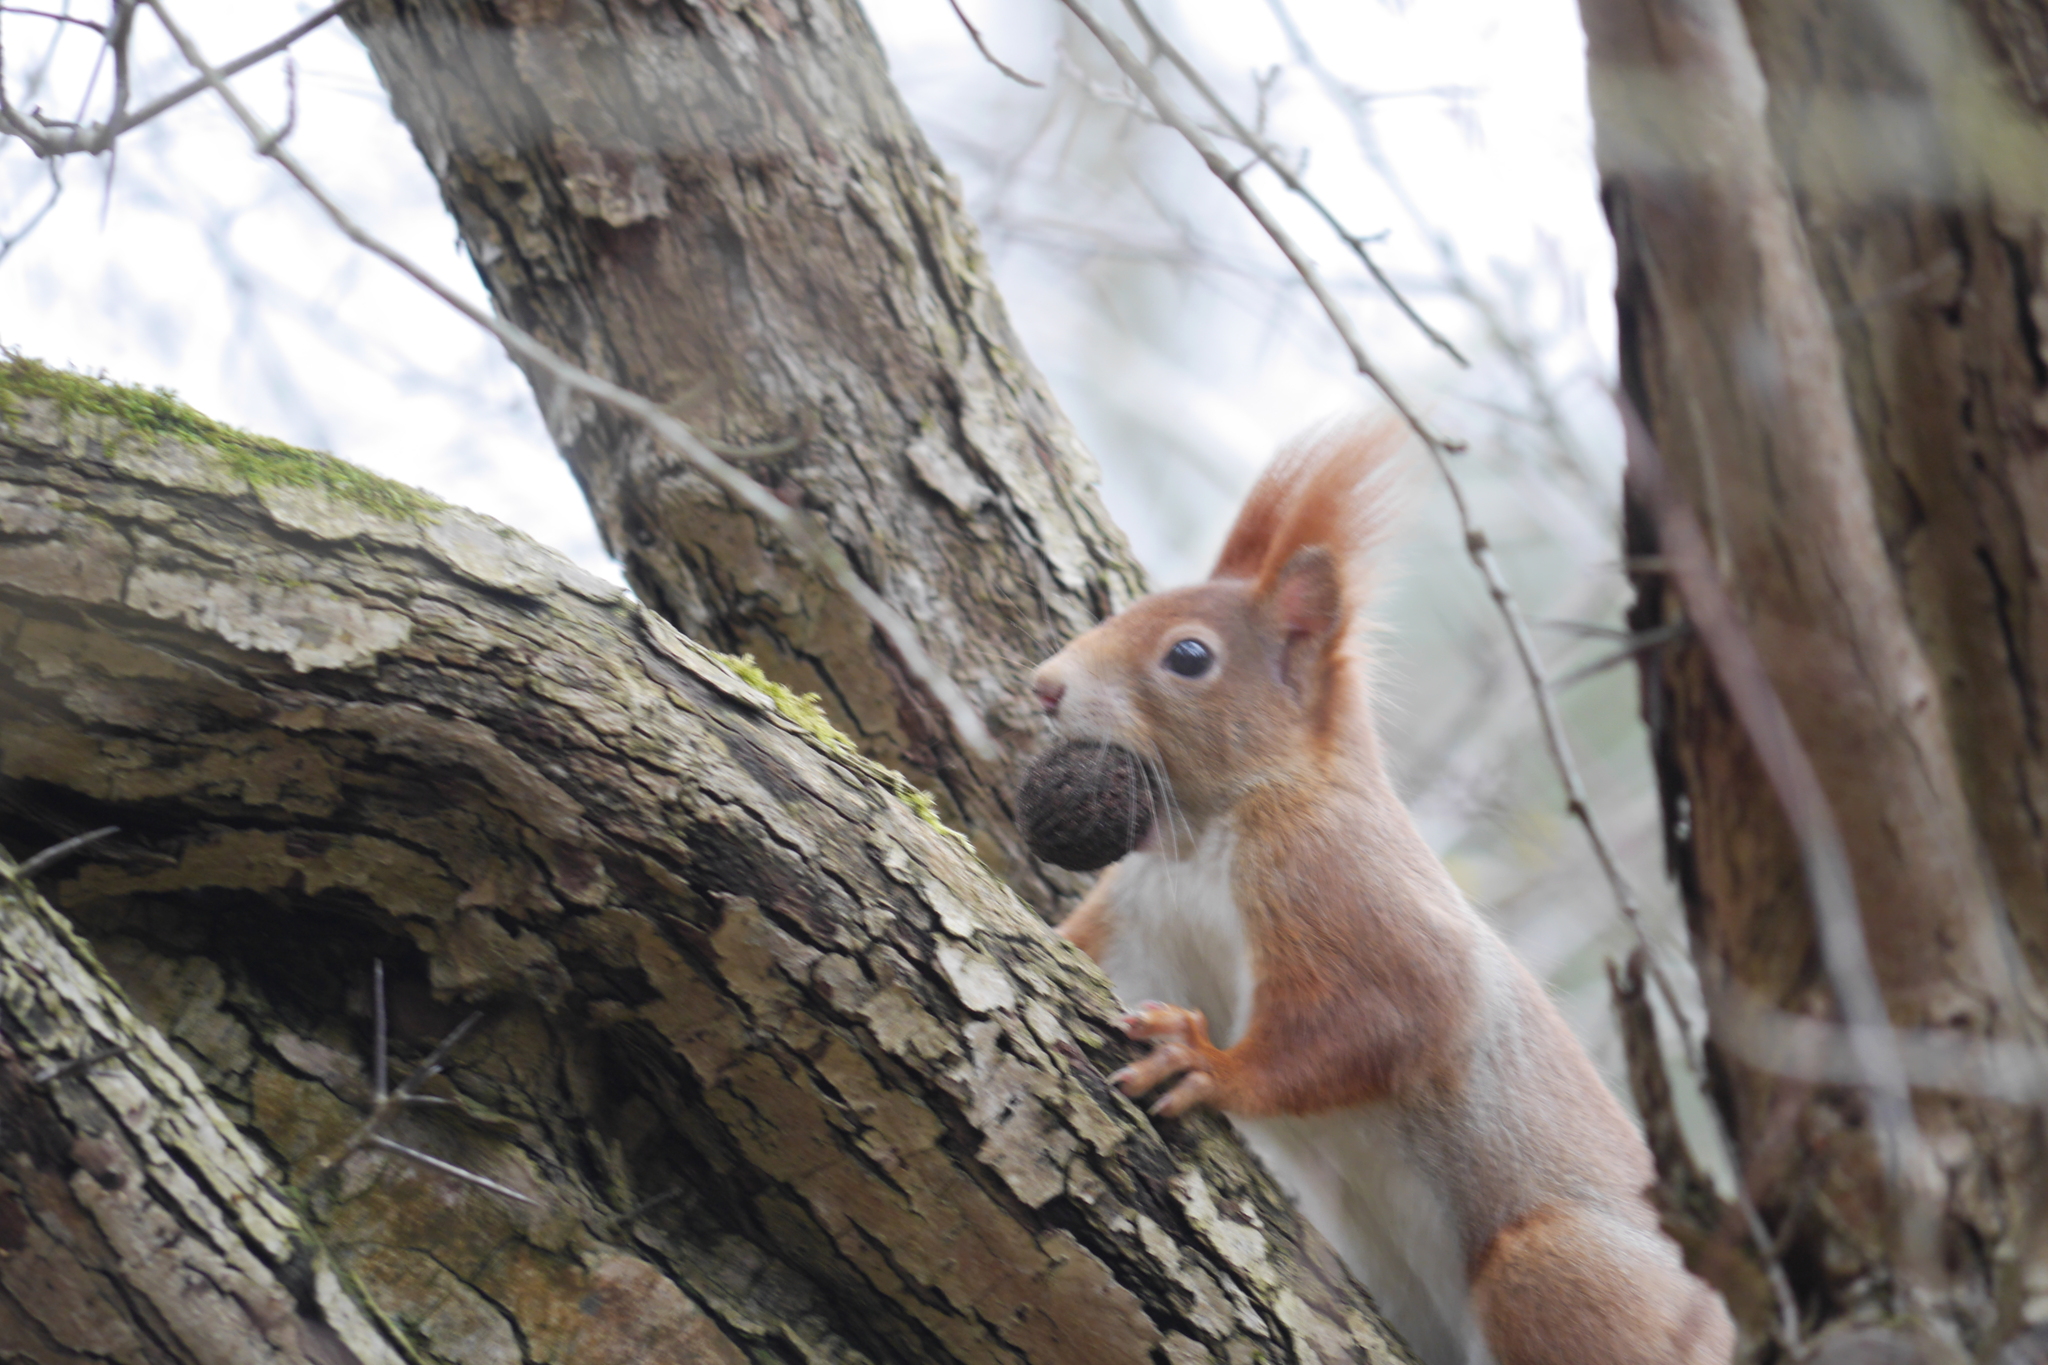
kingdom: Animalia
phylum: Chordata
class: Mammalia
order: Rodentia
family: Sciuridae
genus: Sciurus
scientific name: Sciurus vulgaris
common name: Eurasian red squirrel
